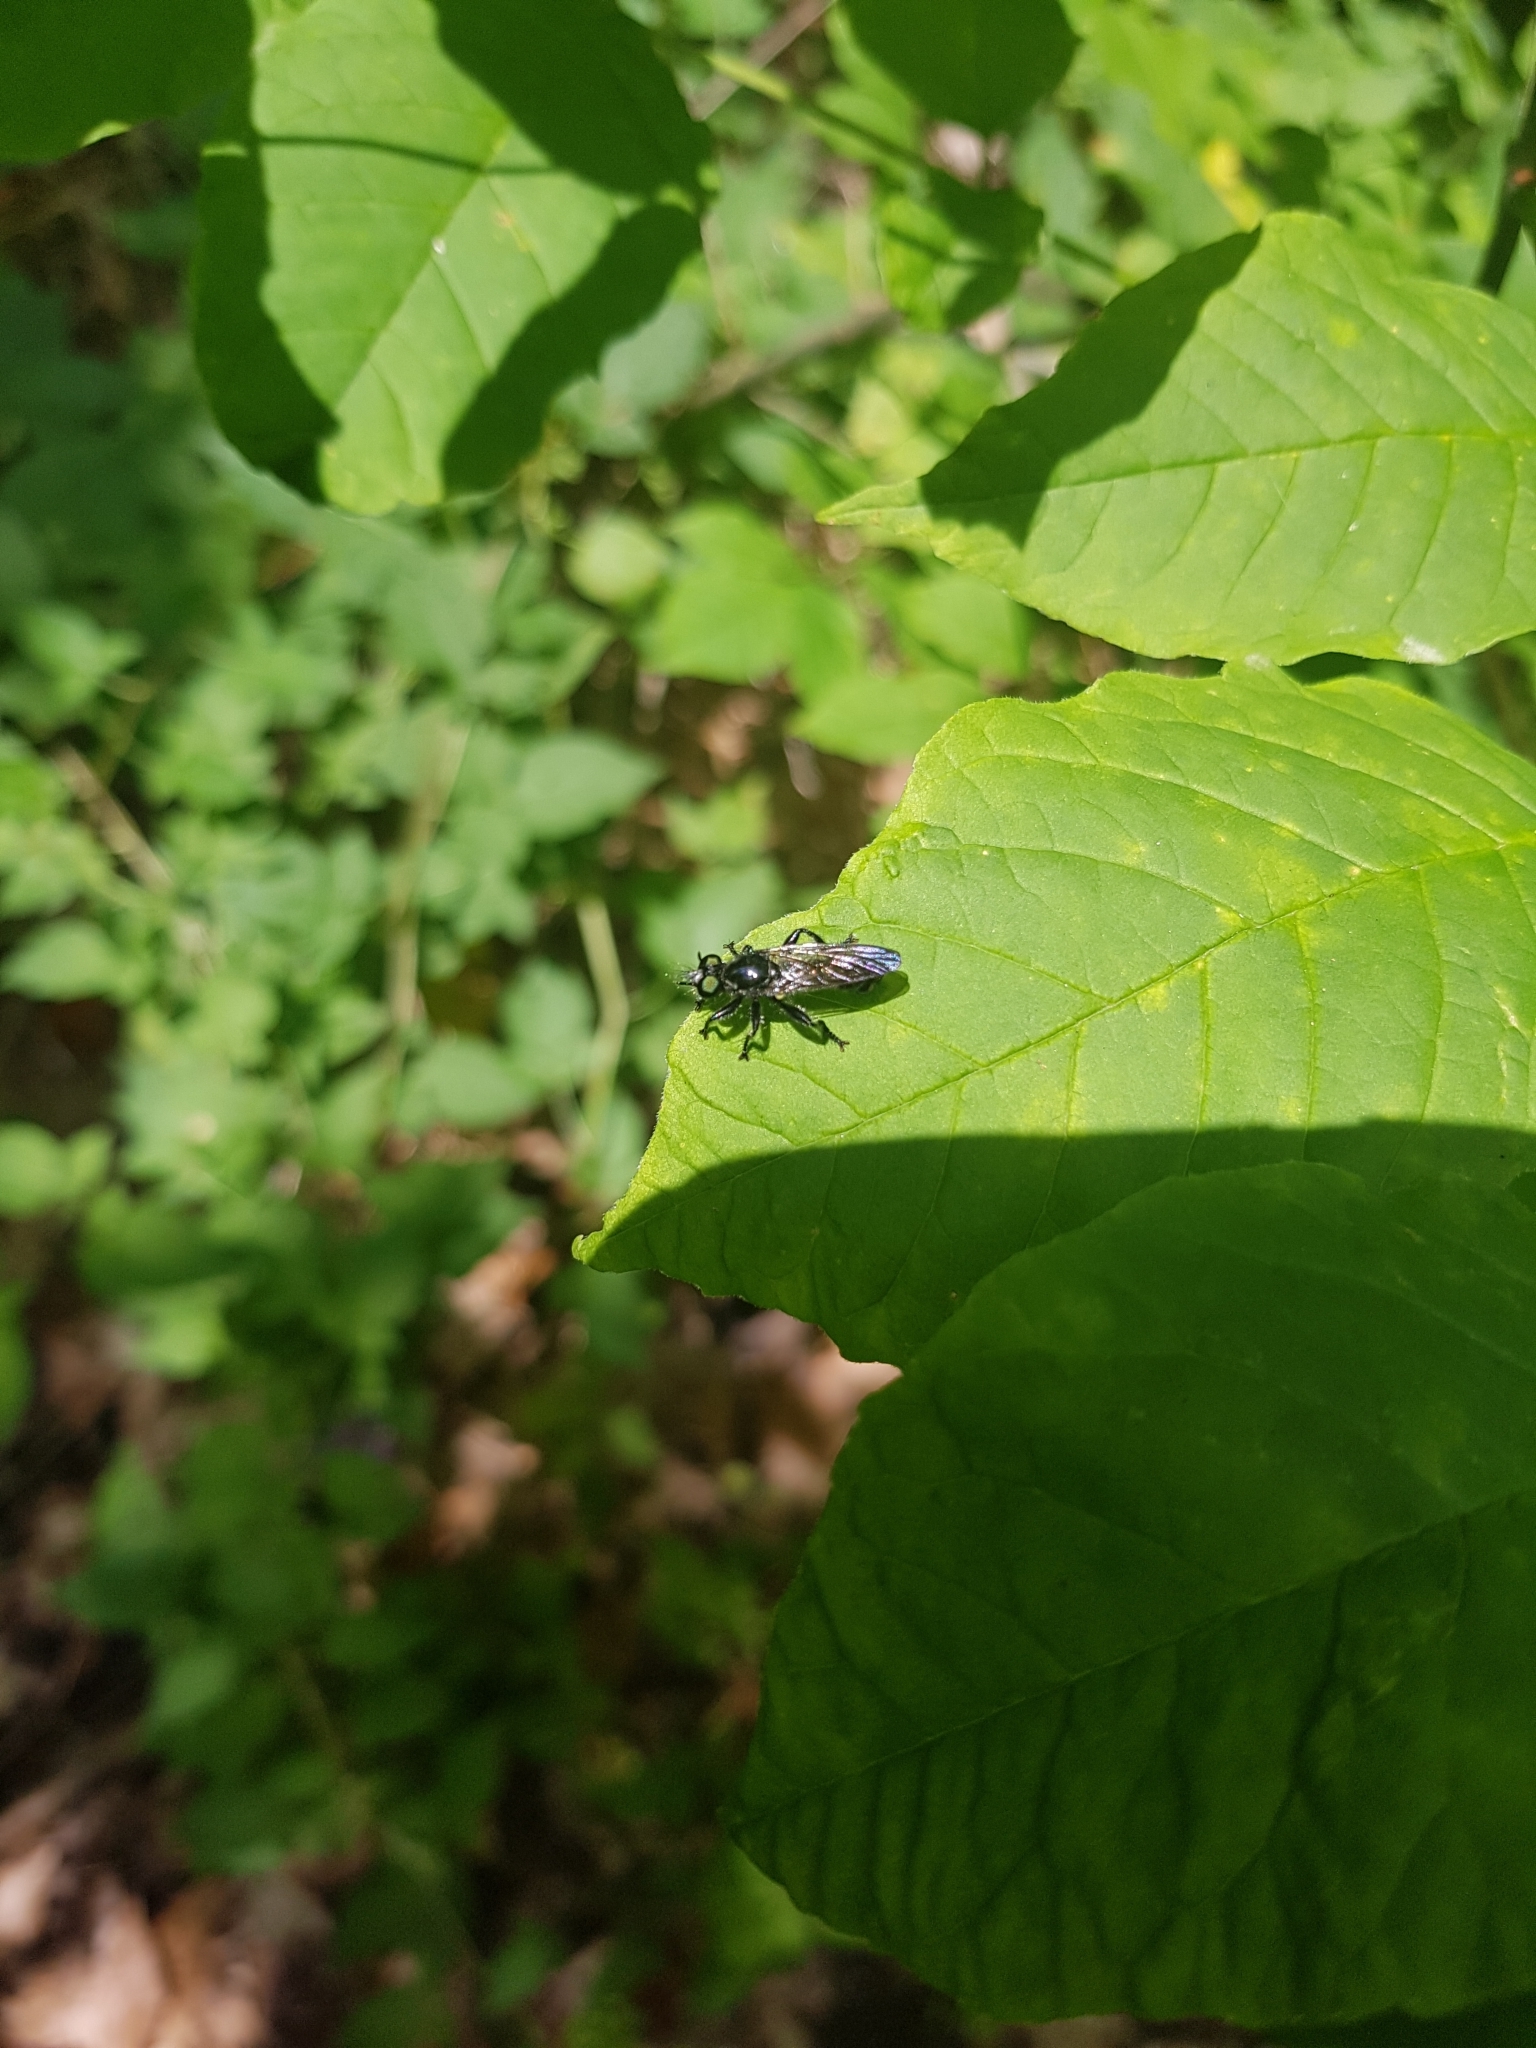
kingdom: Animalia
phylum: Arthropoda
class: Insecta
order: Diptera
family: Asilidae
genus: Laphria
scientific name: Laphria
